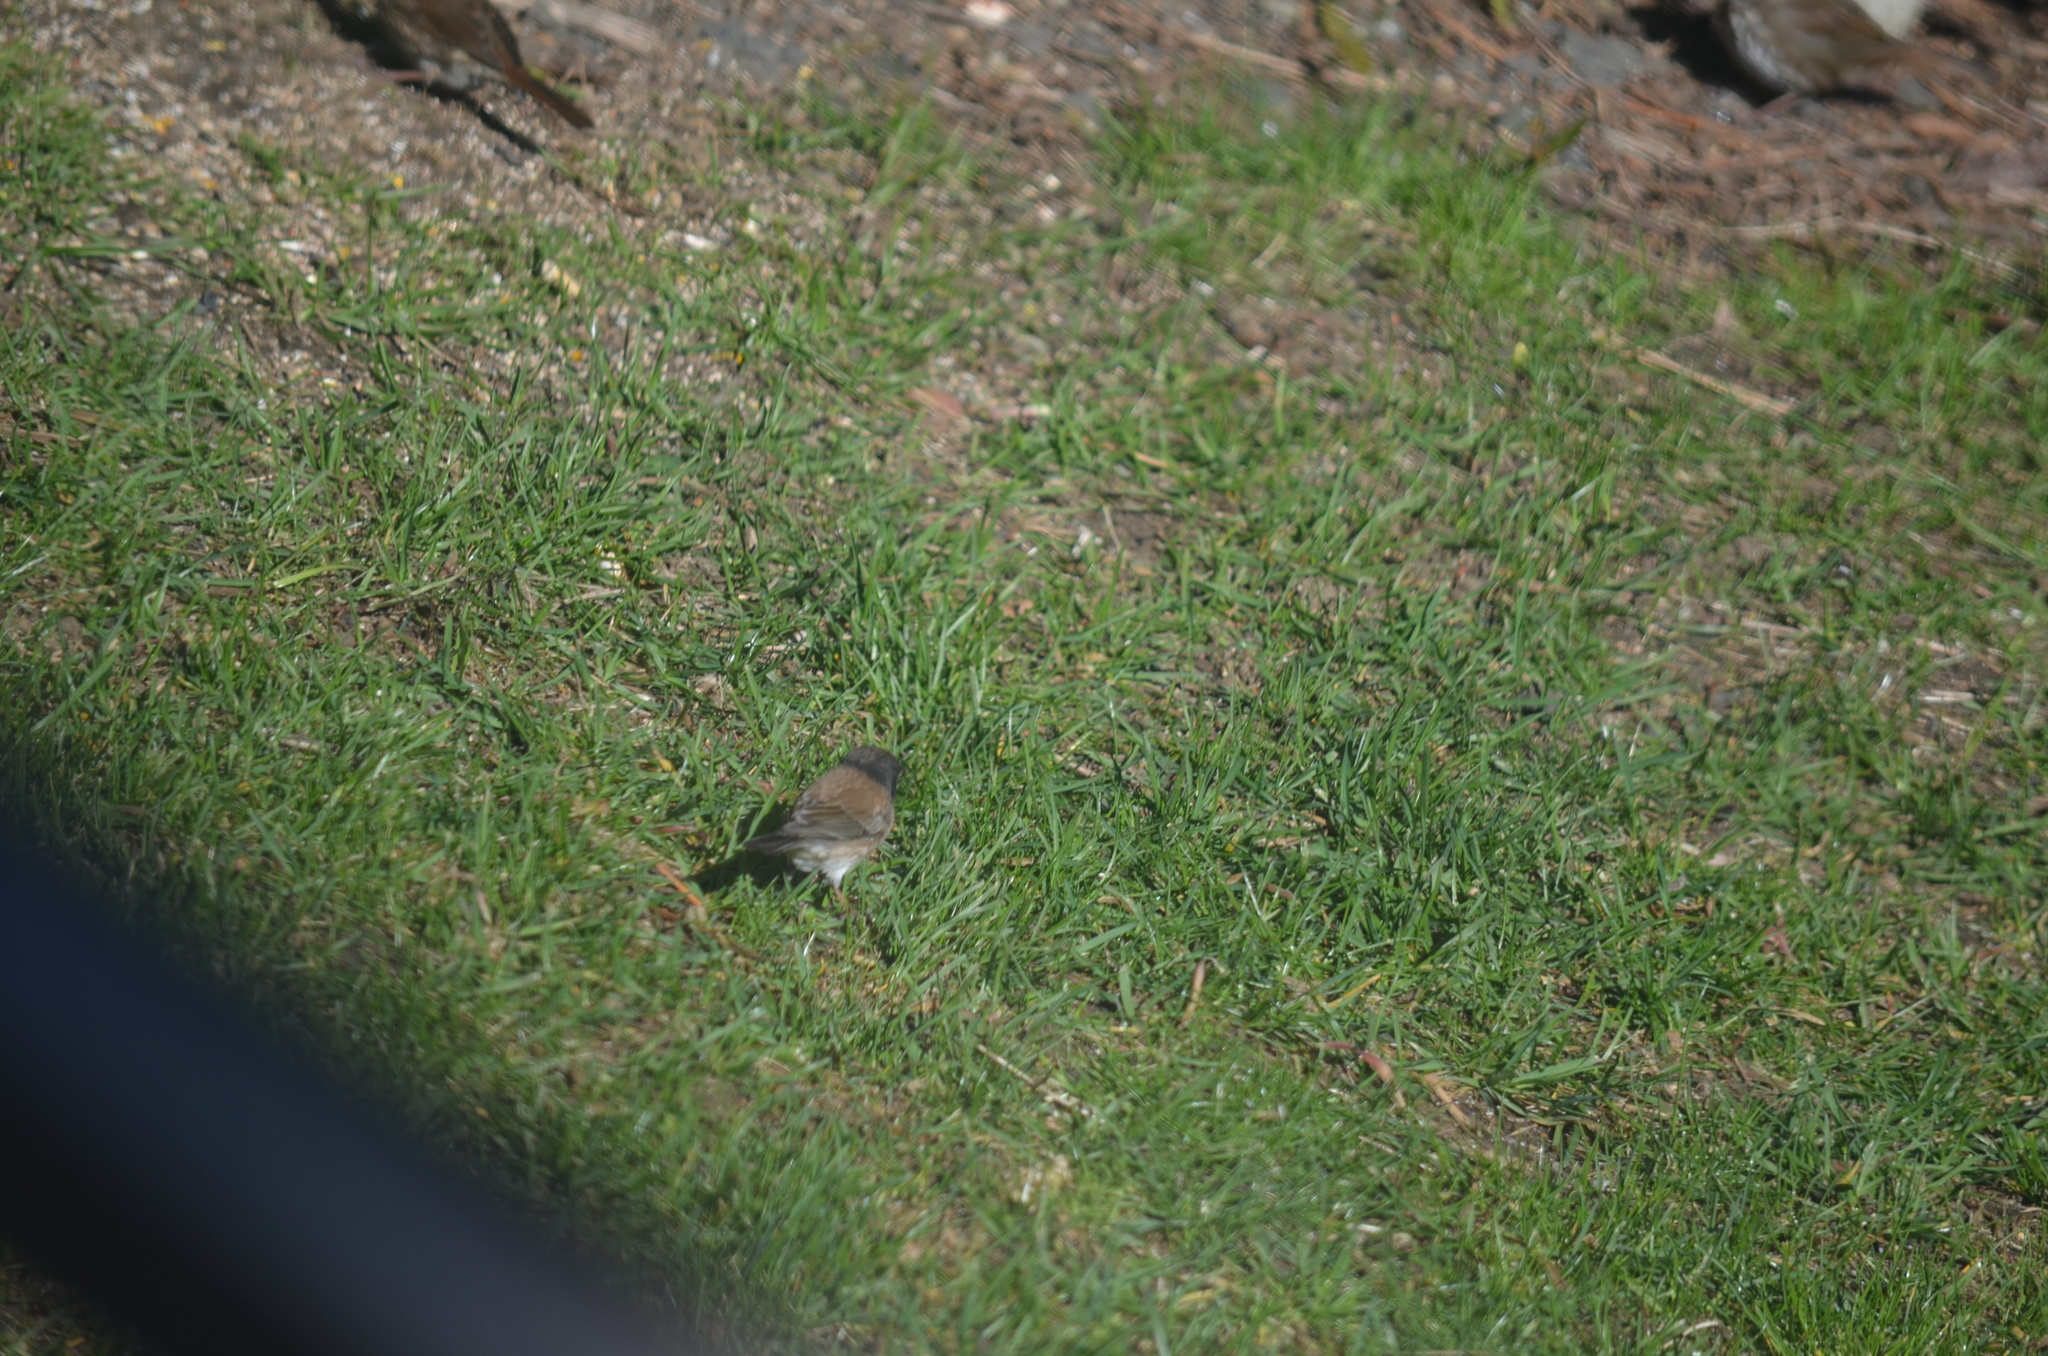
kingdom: Animalia
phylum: Chordata
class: Aves
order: Passeriformes
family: Passerellidae
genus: Junco
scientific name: Junco hyemalis
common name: Dark-eyed junco
